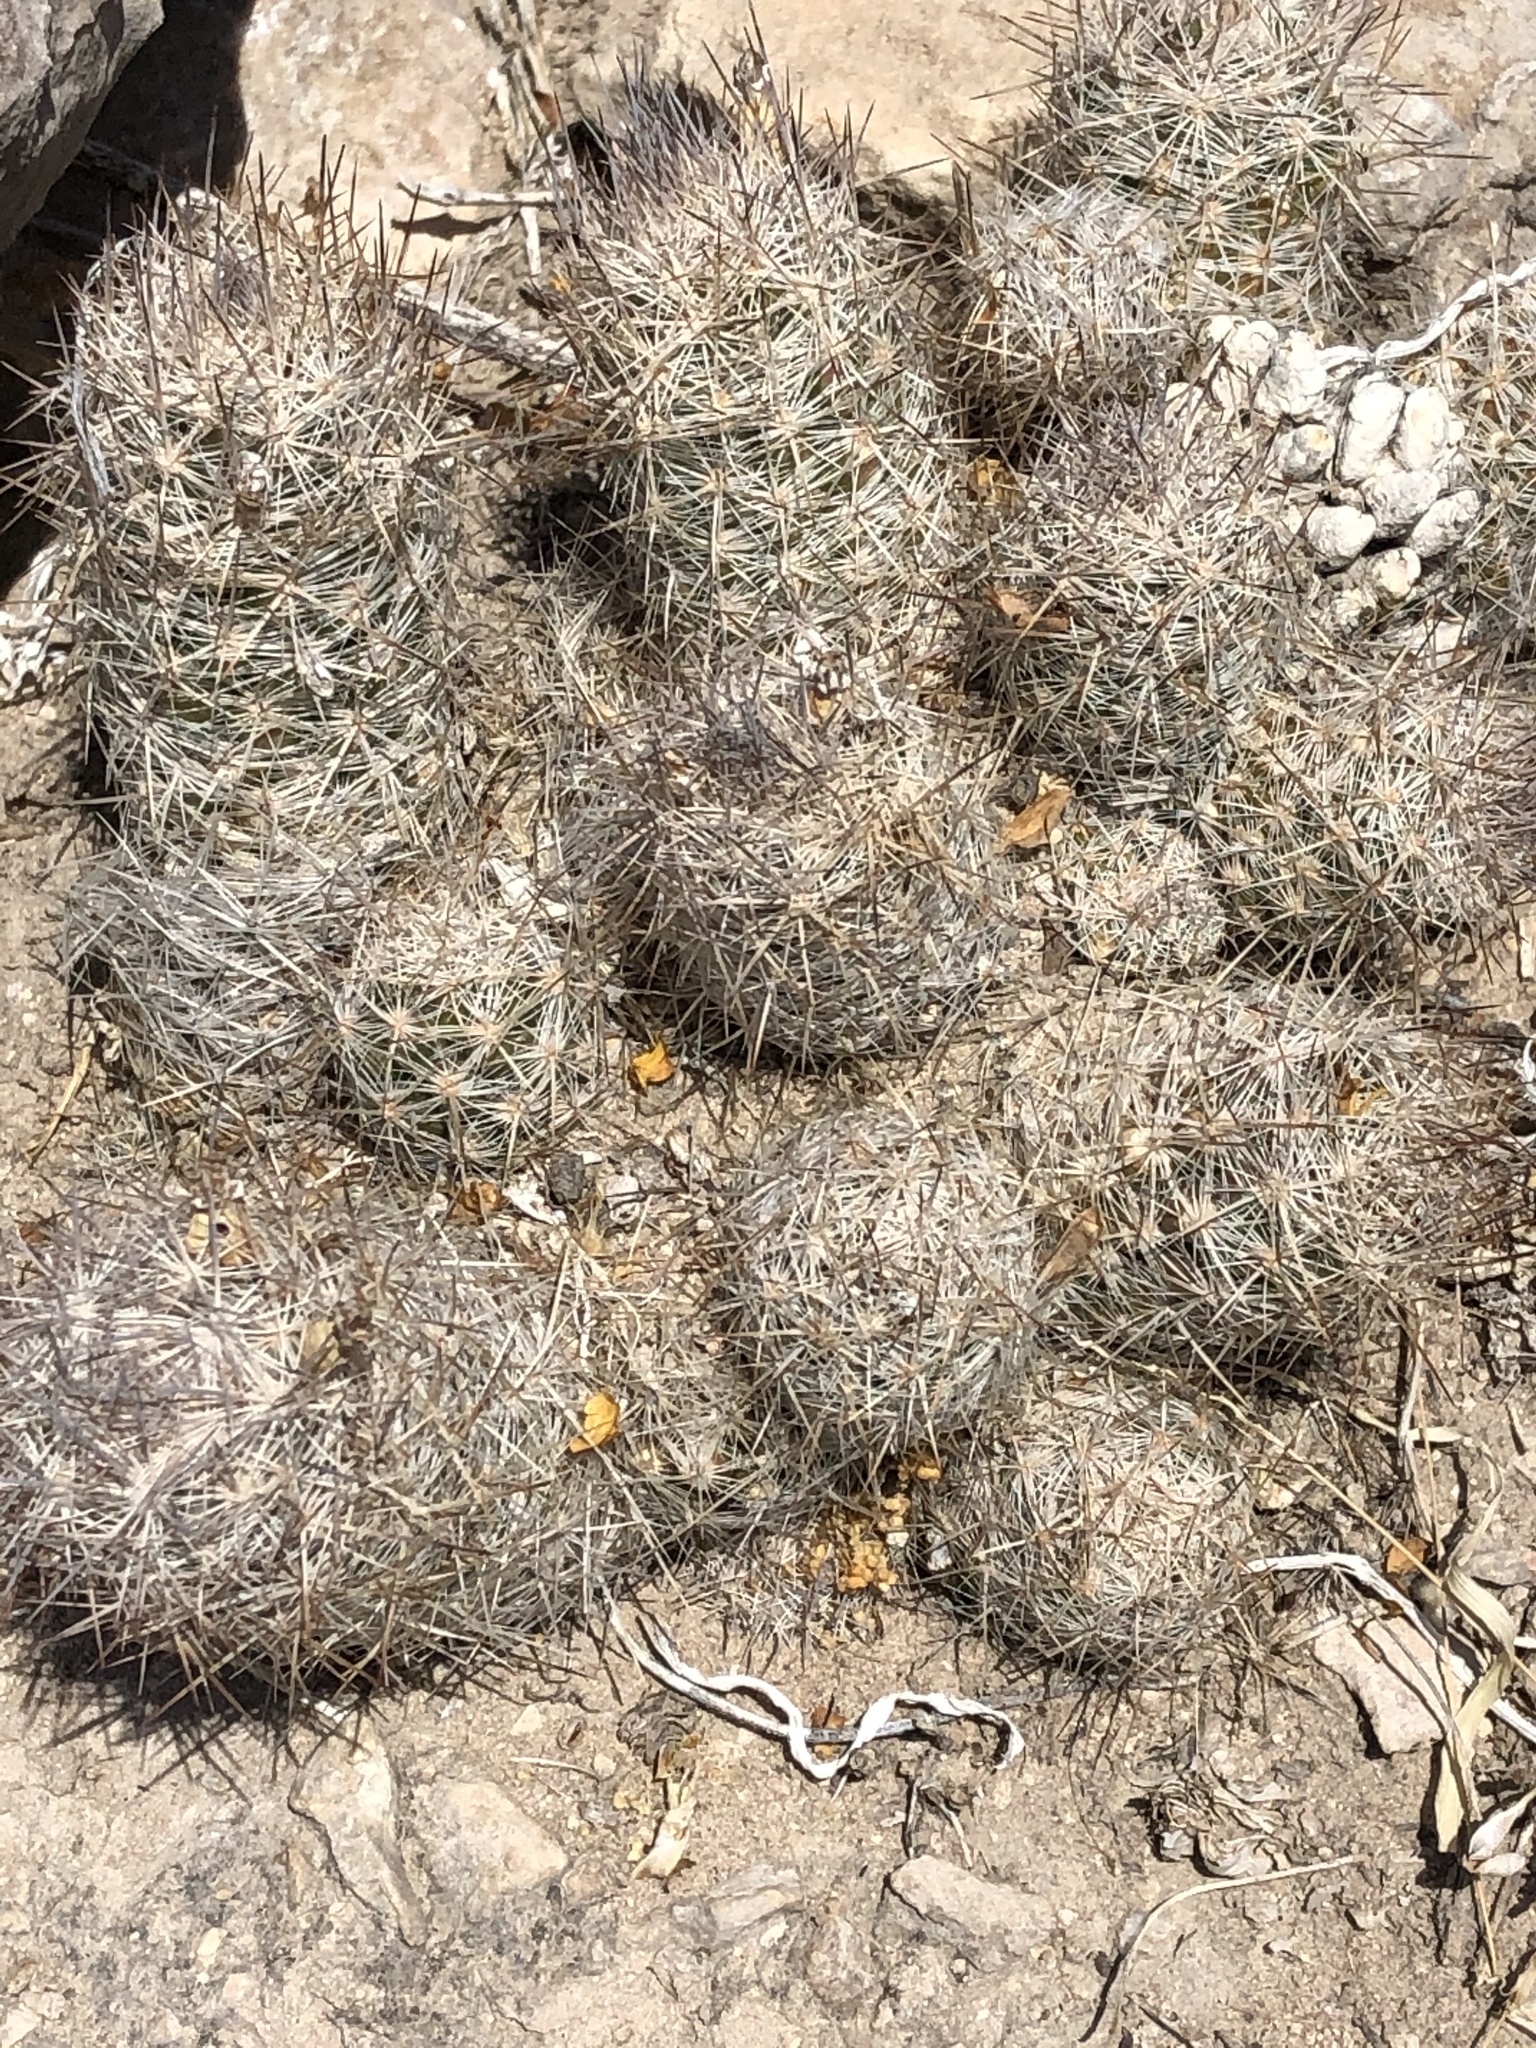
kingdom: Plantae
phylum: Tracheophyta
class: Magnoliopsida
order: Caryophyllales
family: Cactaceae
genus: Pelecyphora
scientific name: Pelecyphora tuberculosa
